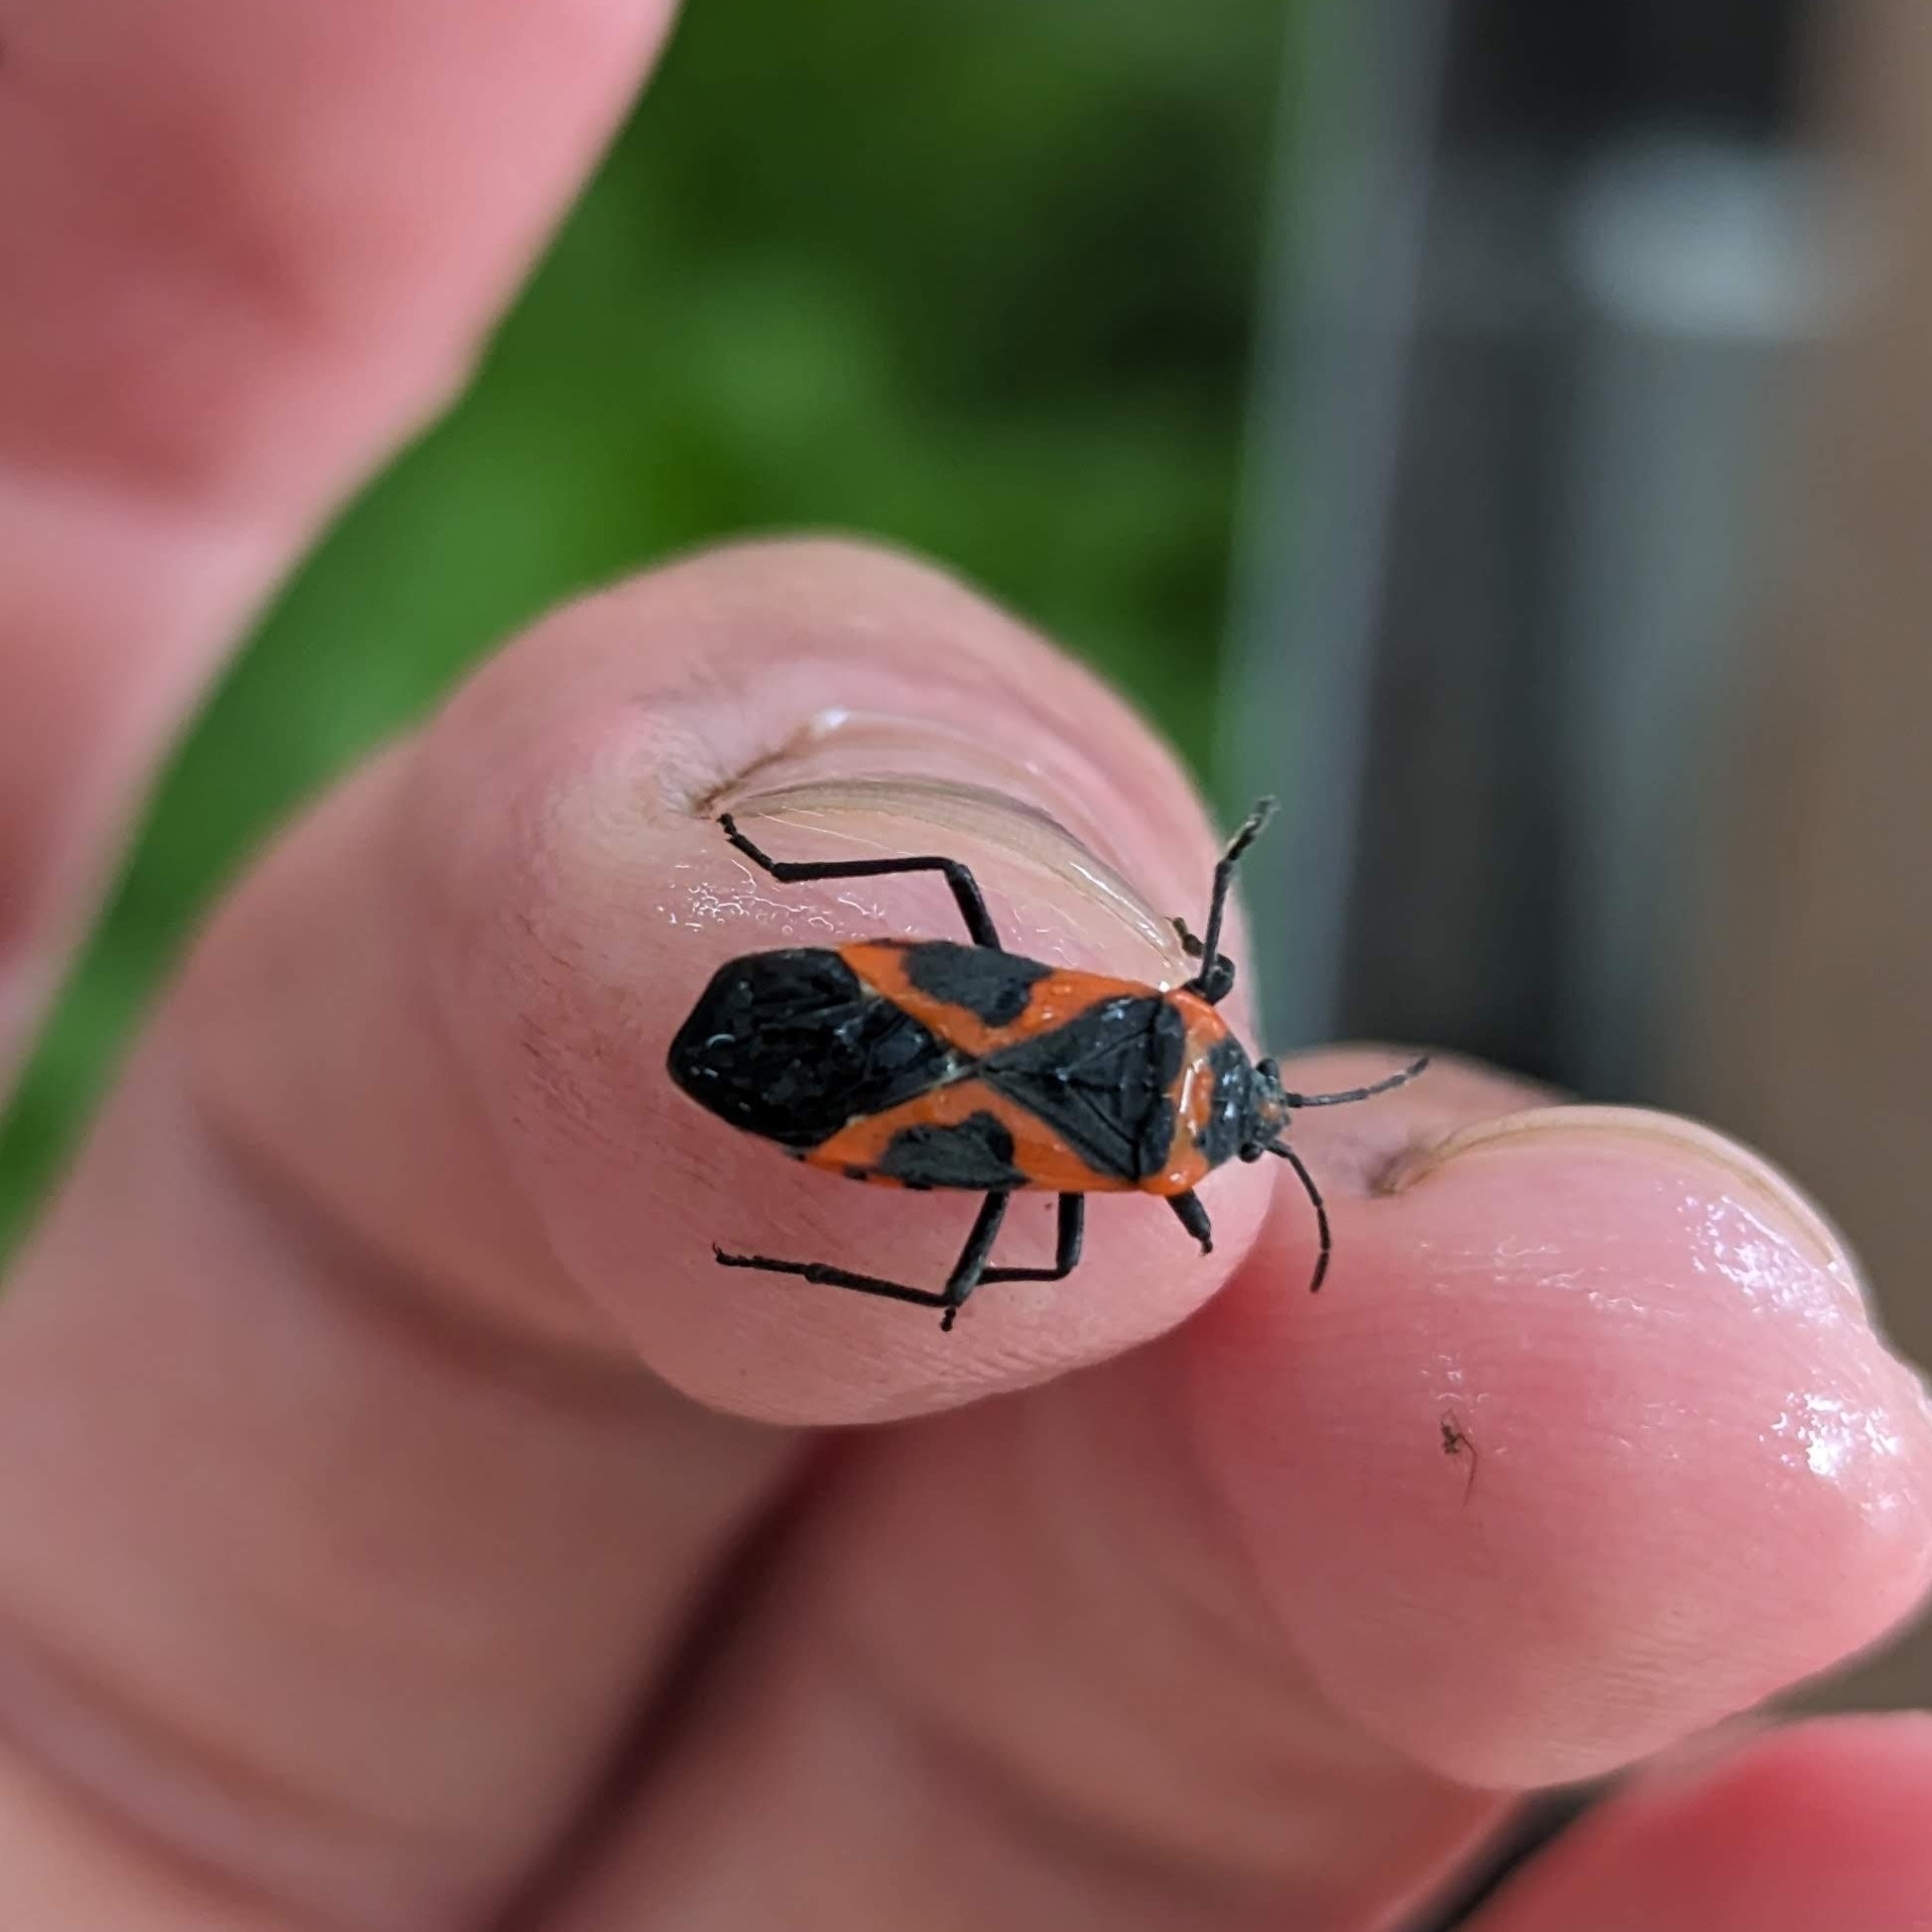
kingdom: Animalia
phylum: Arthropoda
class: Insecta
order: Hemiptera
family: Lygaeidae
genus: Lygaeus
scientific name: Lygaeus kalmii
